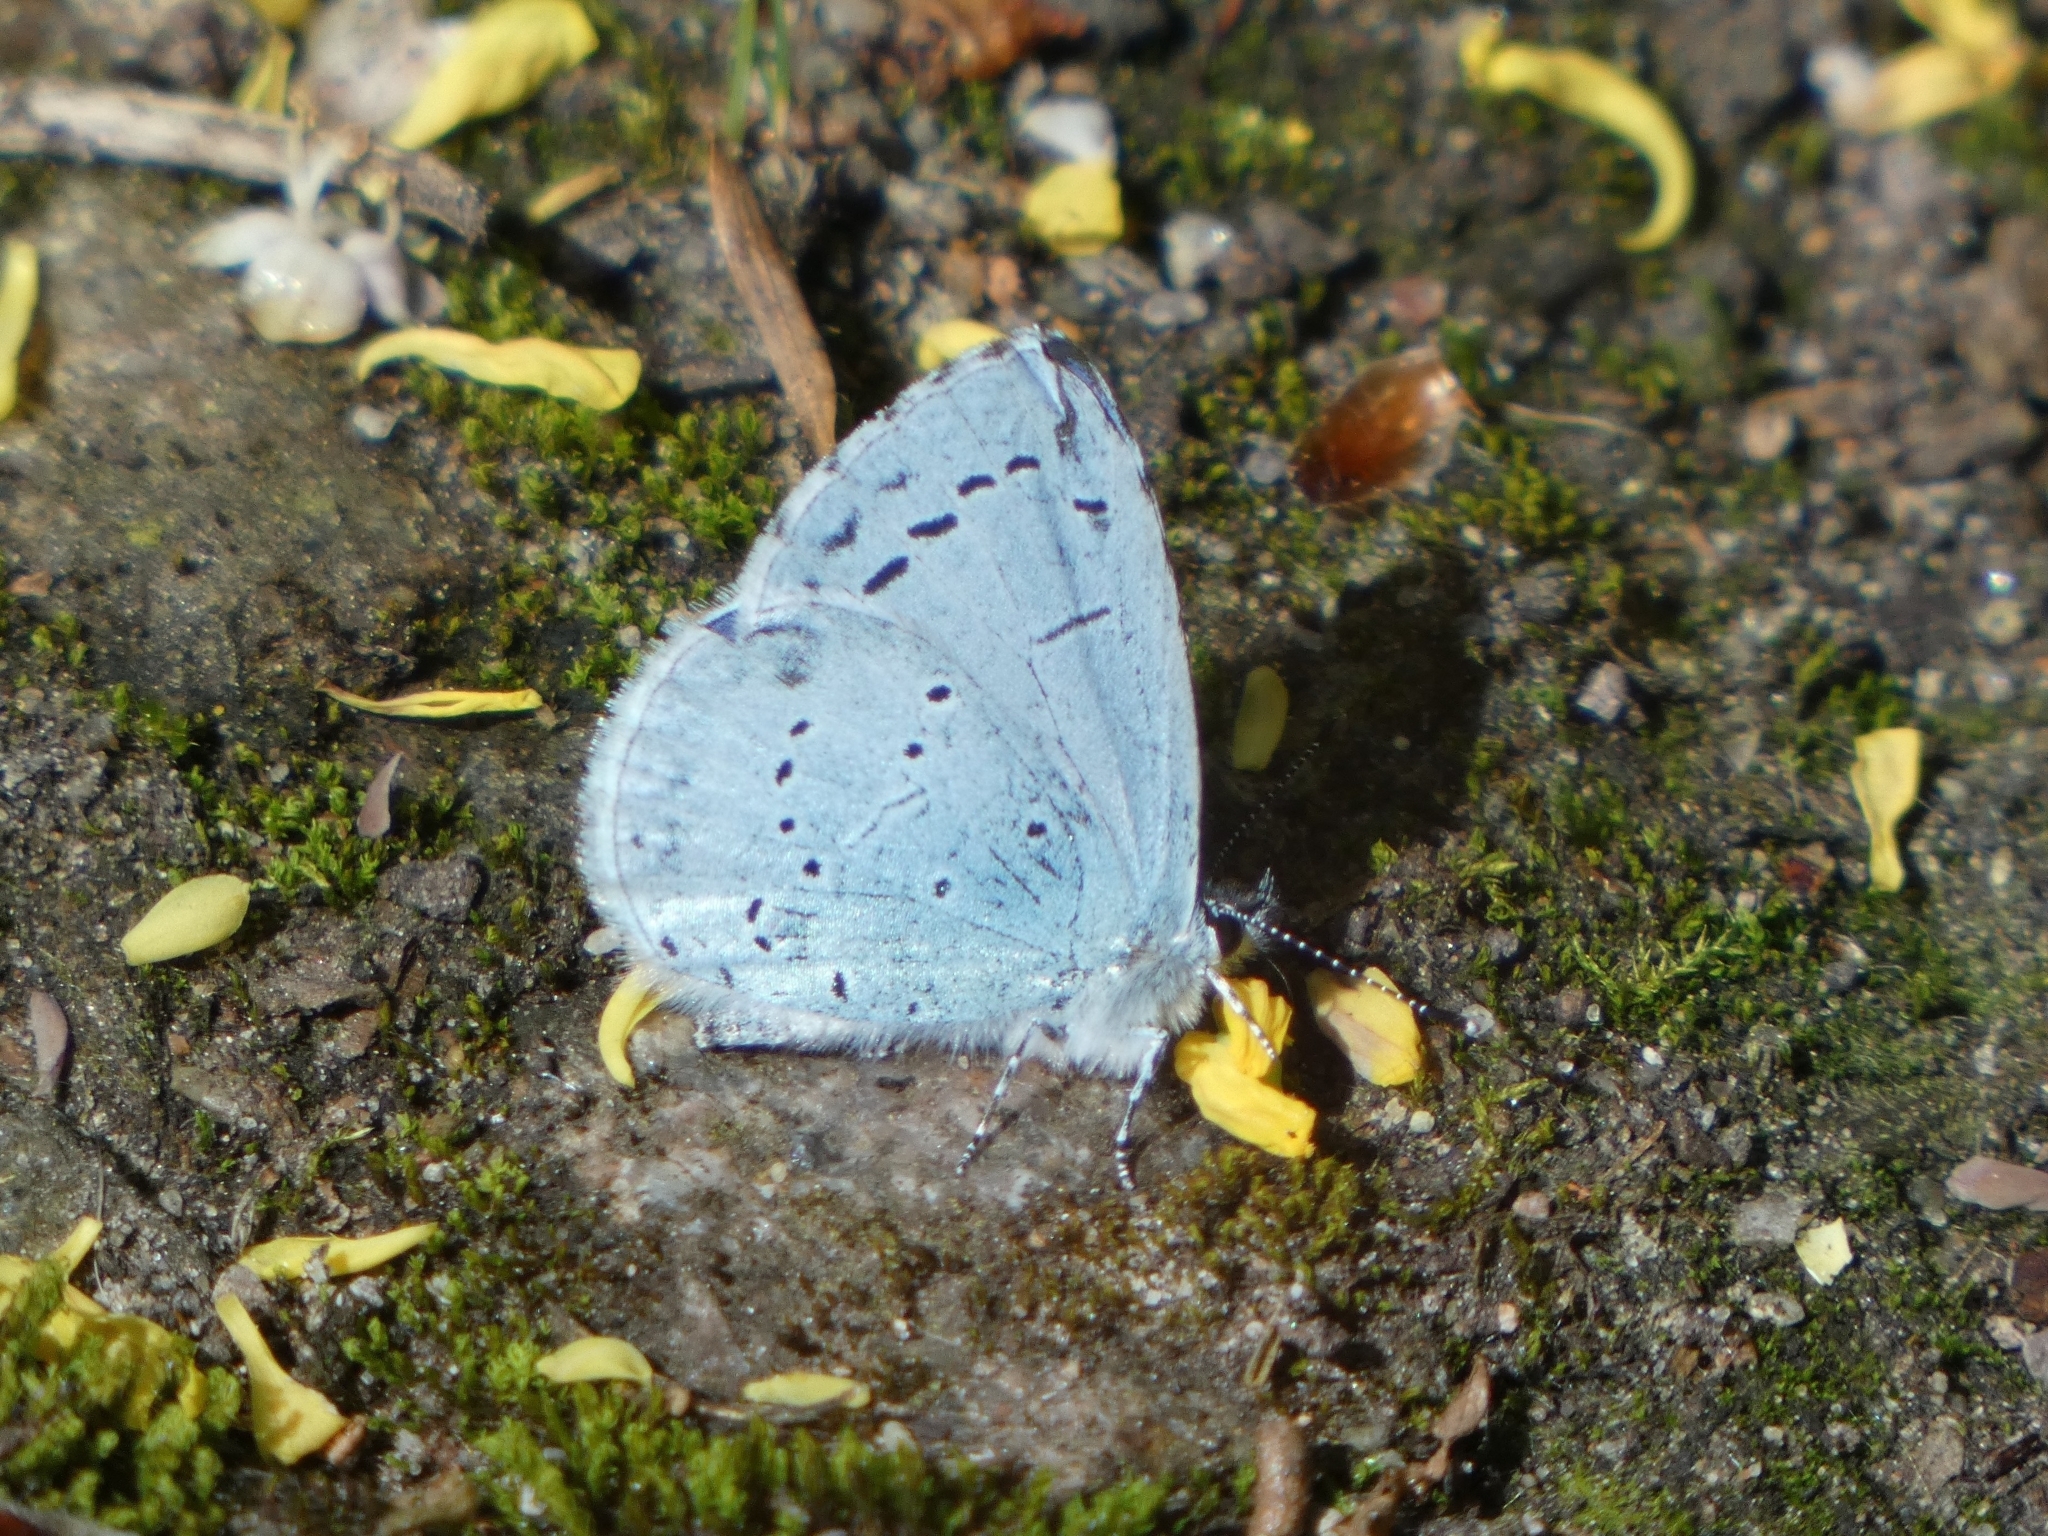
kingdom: Animalia
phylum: Arthropoda
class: Insecta
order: Lepidoptera
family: Lycaenidae
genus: Celastrina
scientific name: Celastrina argiolus
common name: Holly blue
